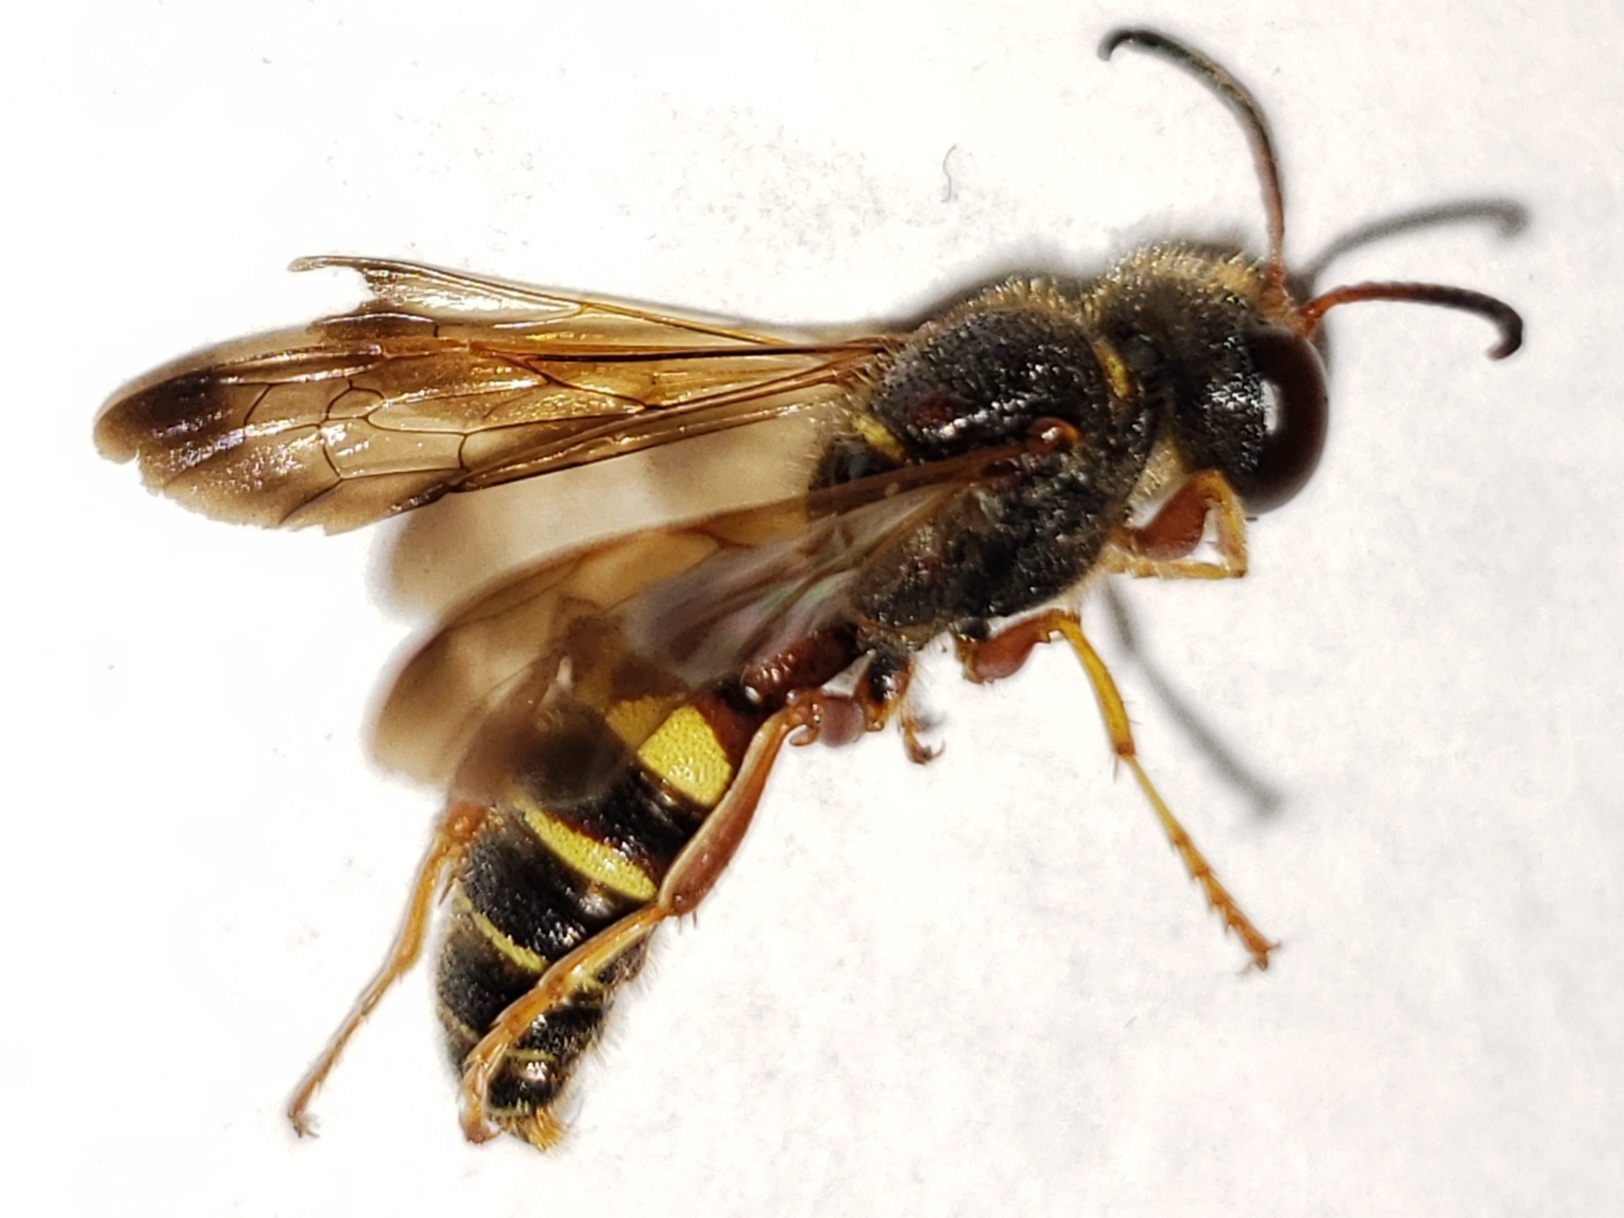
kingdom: Animalia
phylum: Arthropoda
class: Insecta
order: Hymenoptera
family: Crabronidae
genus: Cerceris
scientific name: Cerceris bicornuta
